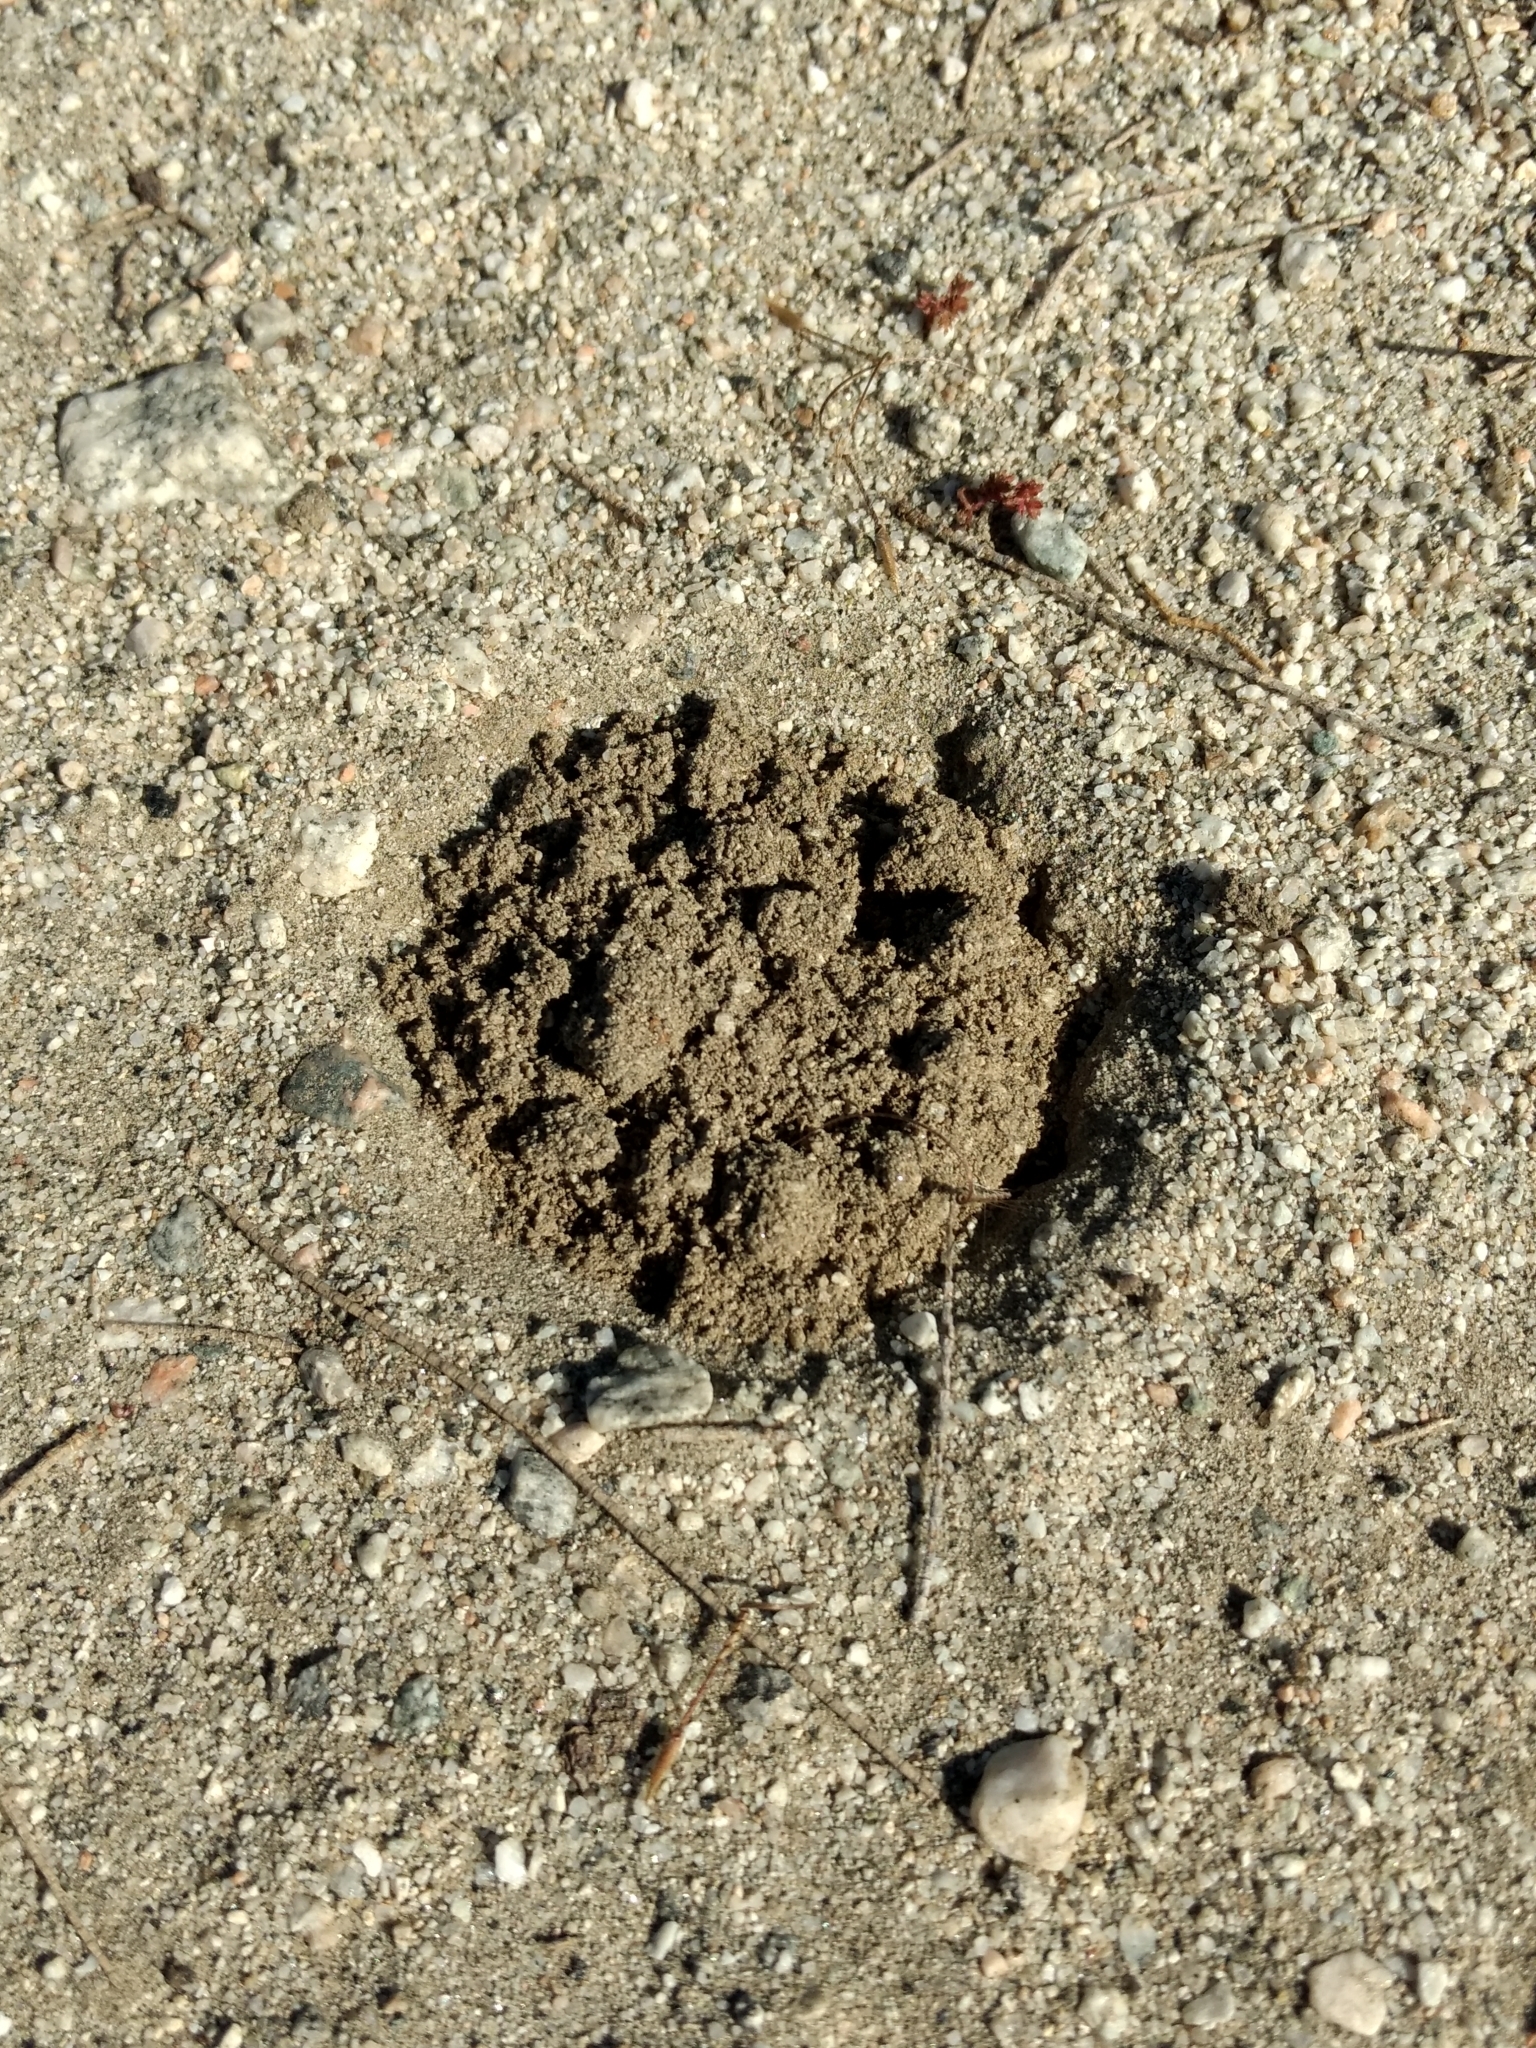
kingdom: Animalia
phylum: Chordata
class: Mammalia
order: Rodentia
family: Geomyidae
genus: Thomomys
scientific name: Thomomys bottae
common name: Botta's pocket gopher
